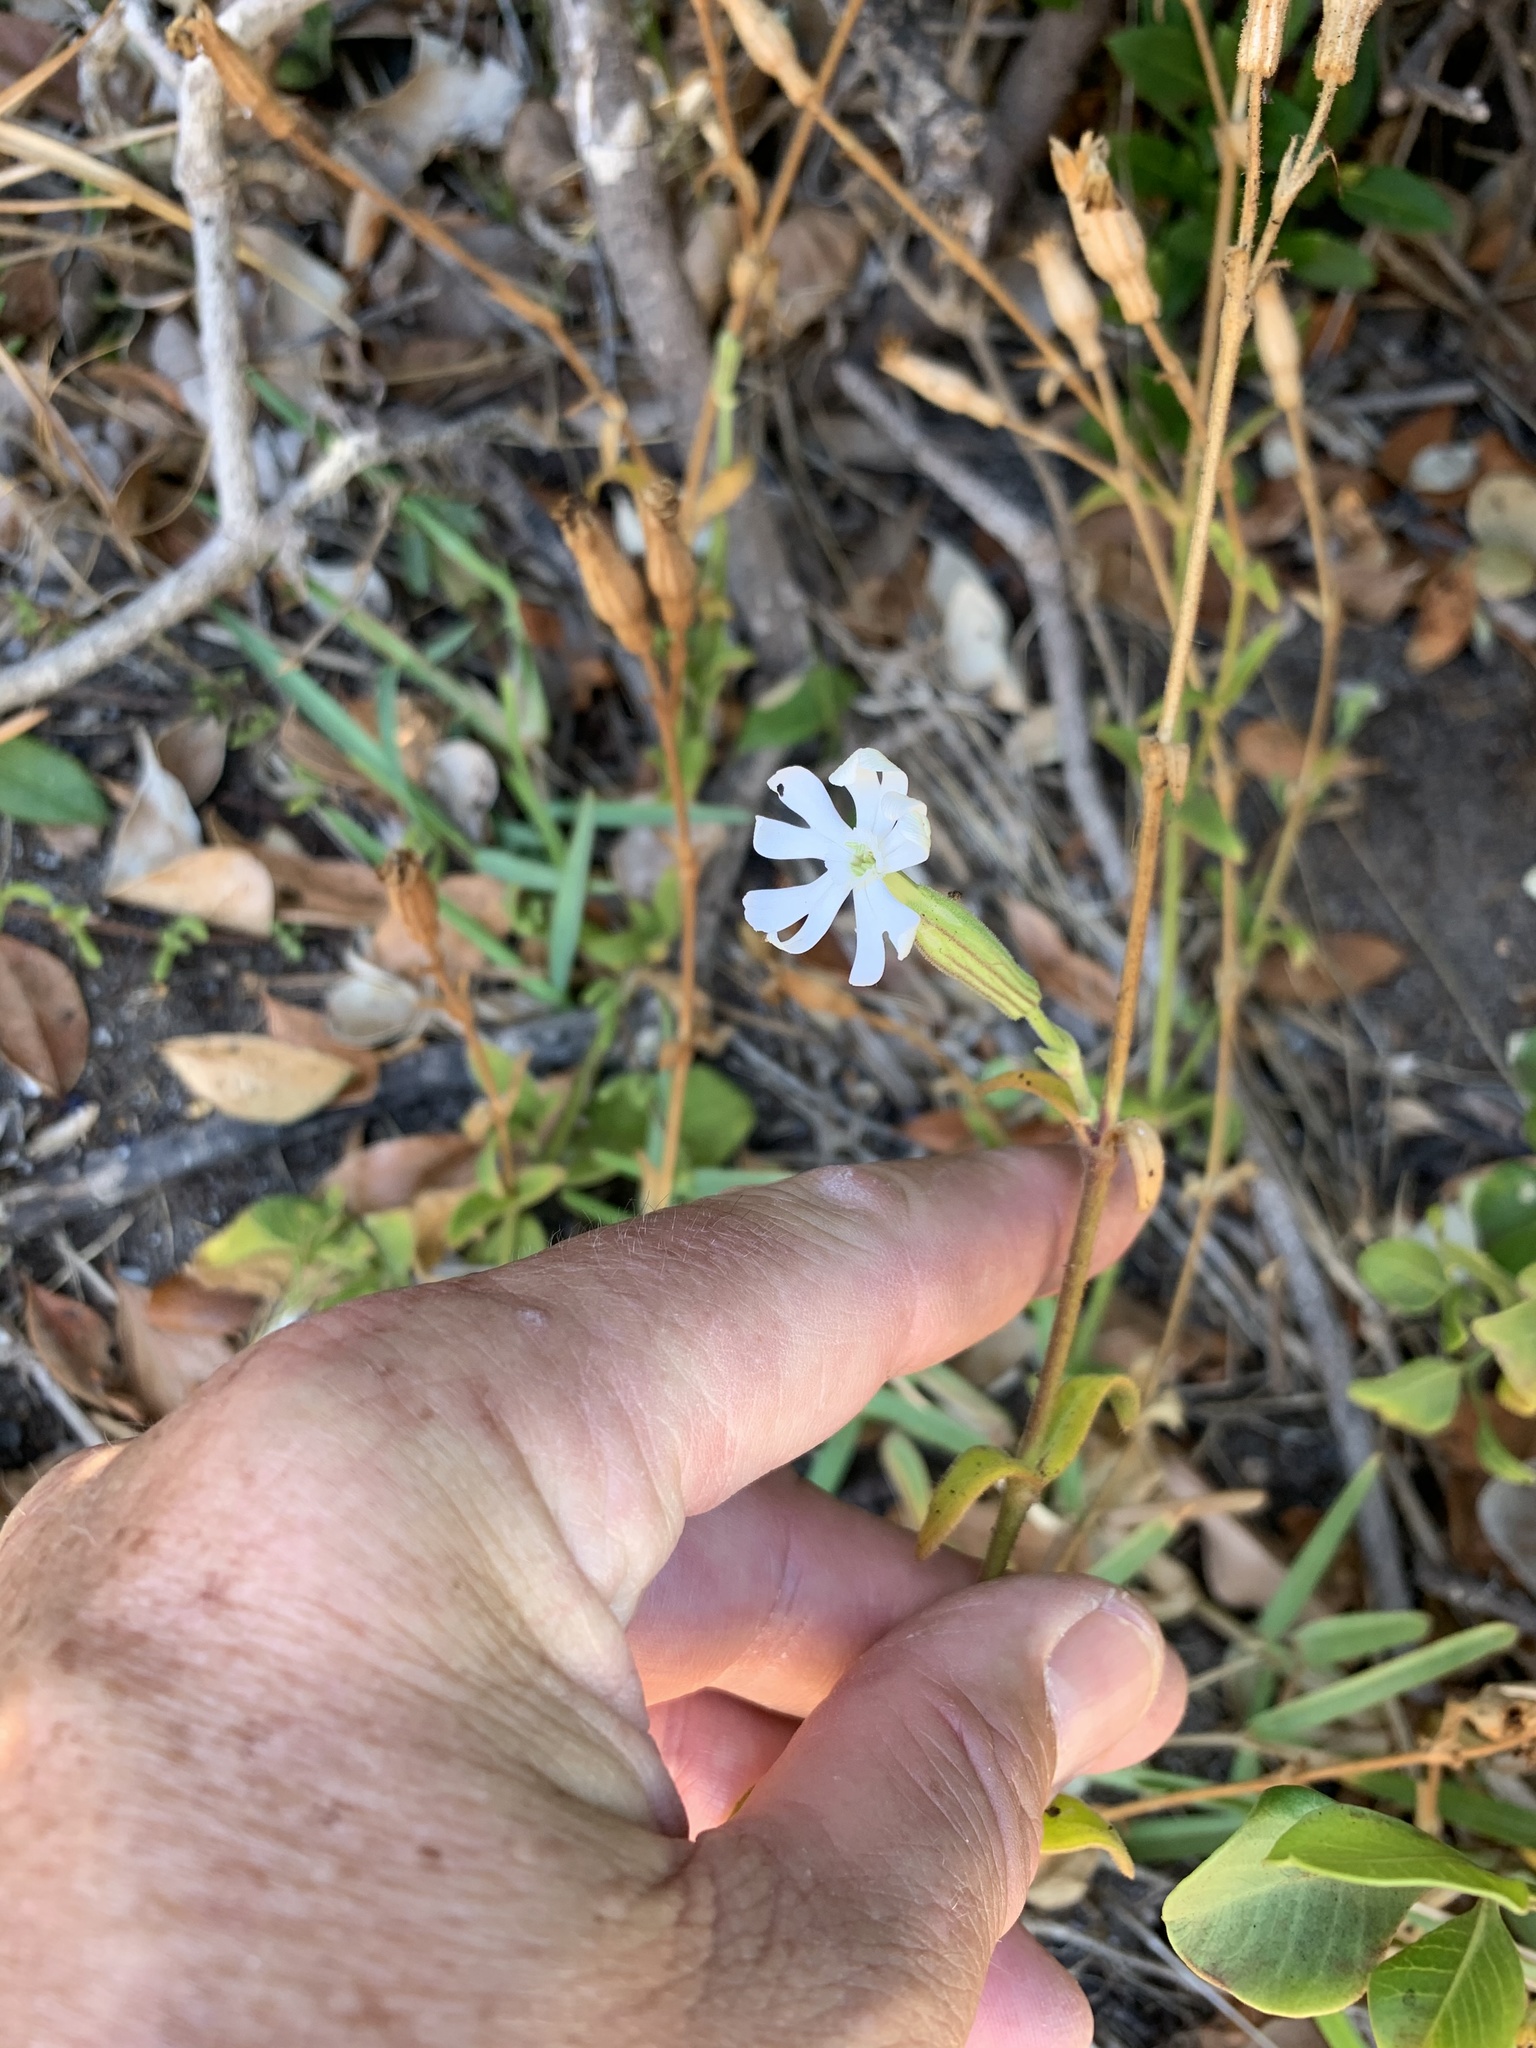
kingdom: Plantae
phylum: Tracheophyta
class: Magnoliopsida
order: Caryophyllales
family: Caryophyllaceae
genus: Silene
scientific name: Silene undulata
